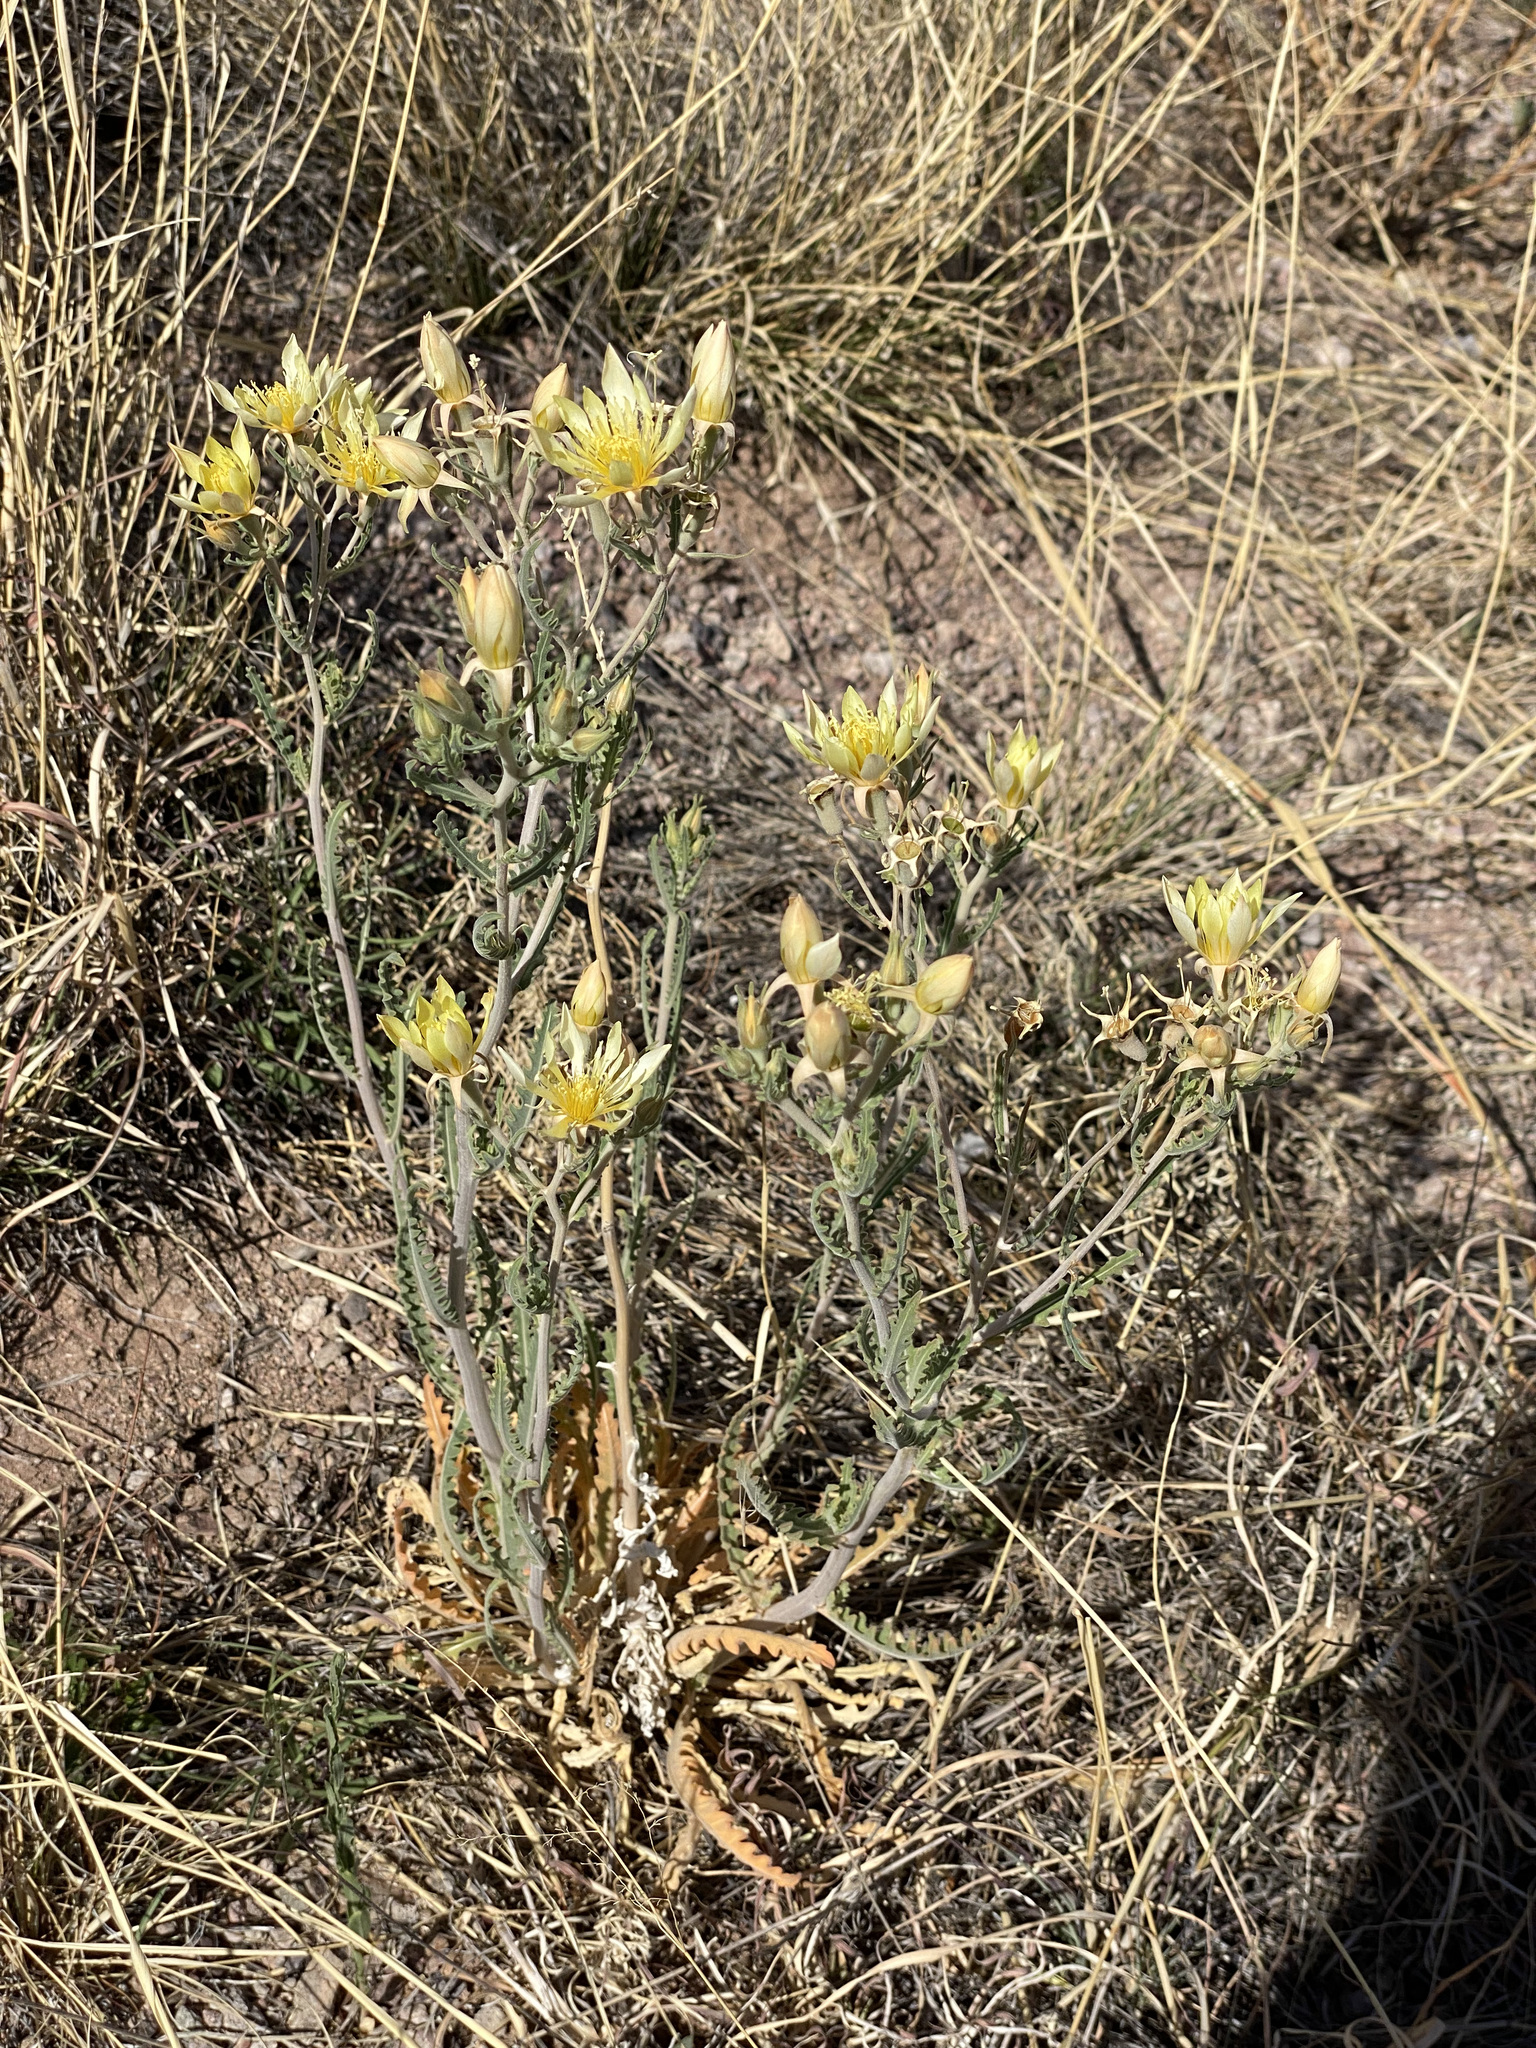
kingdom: Plantae
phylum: Tracheophyta
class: Magnoliopsida
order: Cornales
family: Loasaceae
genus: Mentzelia
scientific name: Mentzelia longiloba
